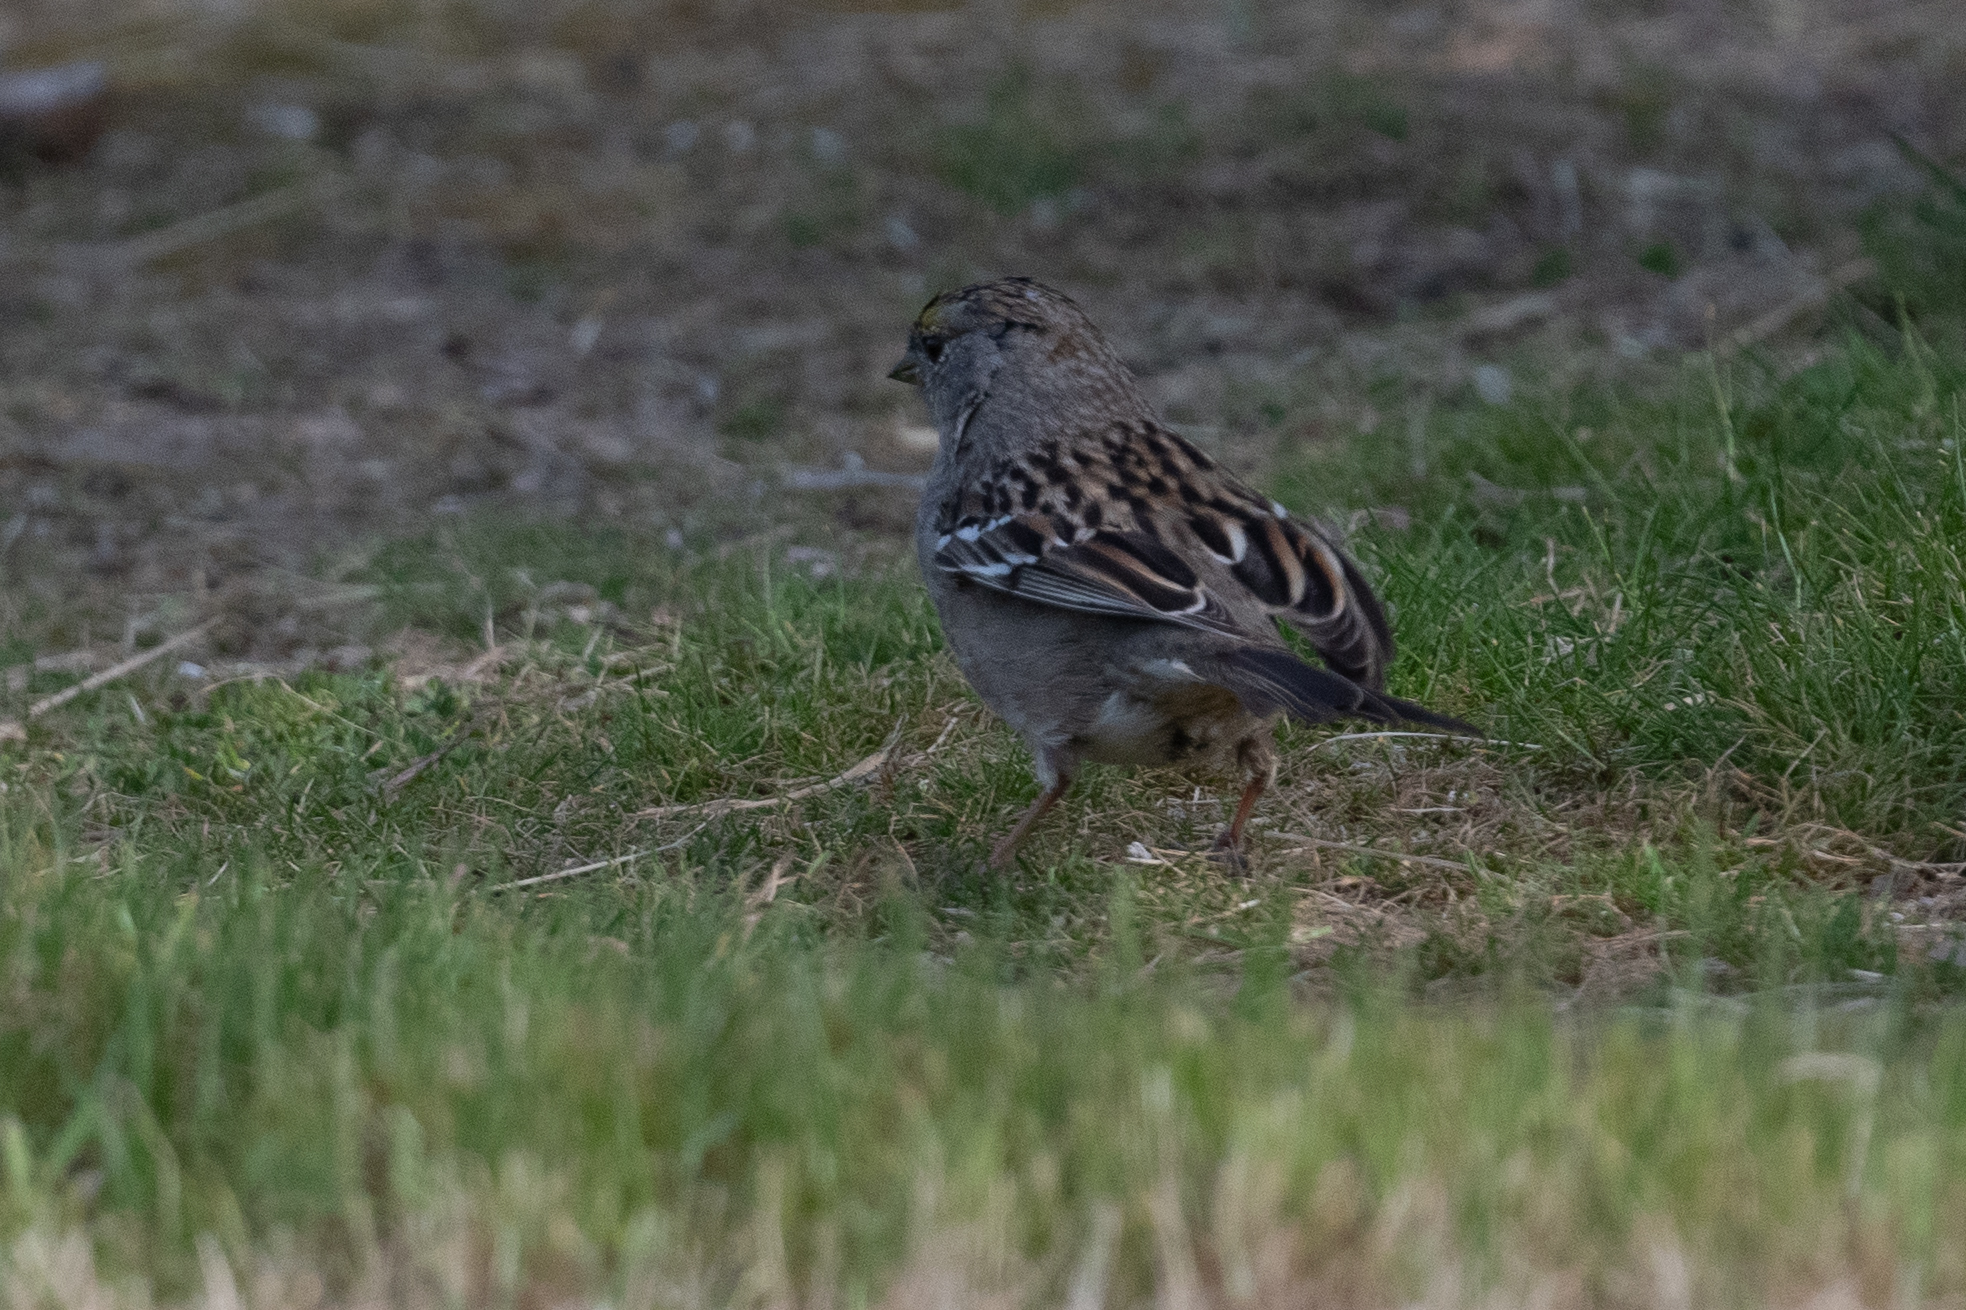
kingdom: Animalia
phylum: Chordata
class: Aves
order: Passeriformes
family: Passerellidae
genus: Zonotrichia
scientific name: Zonotrichia atricapilla
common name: Golden-crowned sparrow
